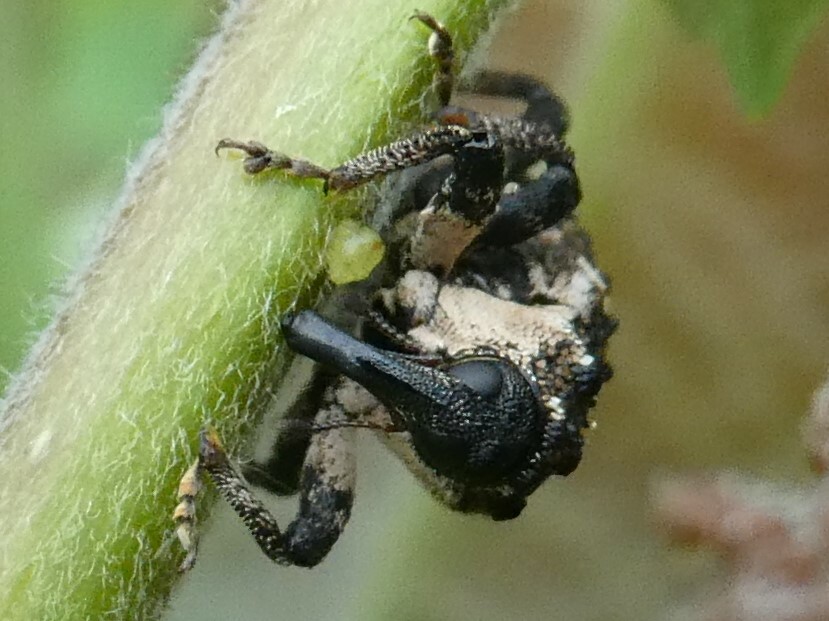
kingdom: Animalia
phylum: Arthropoda
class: Insecta
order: Coleoptera
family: Curculionidae
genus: Cryptorhynchus
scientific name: Cryptorhynchus lapathi
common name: Weevil
